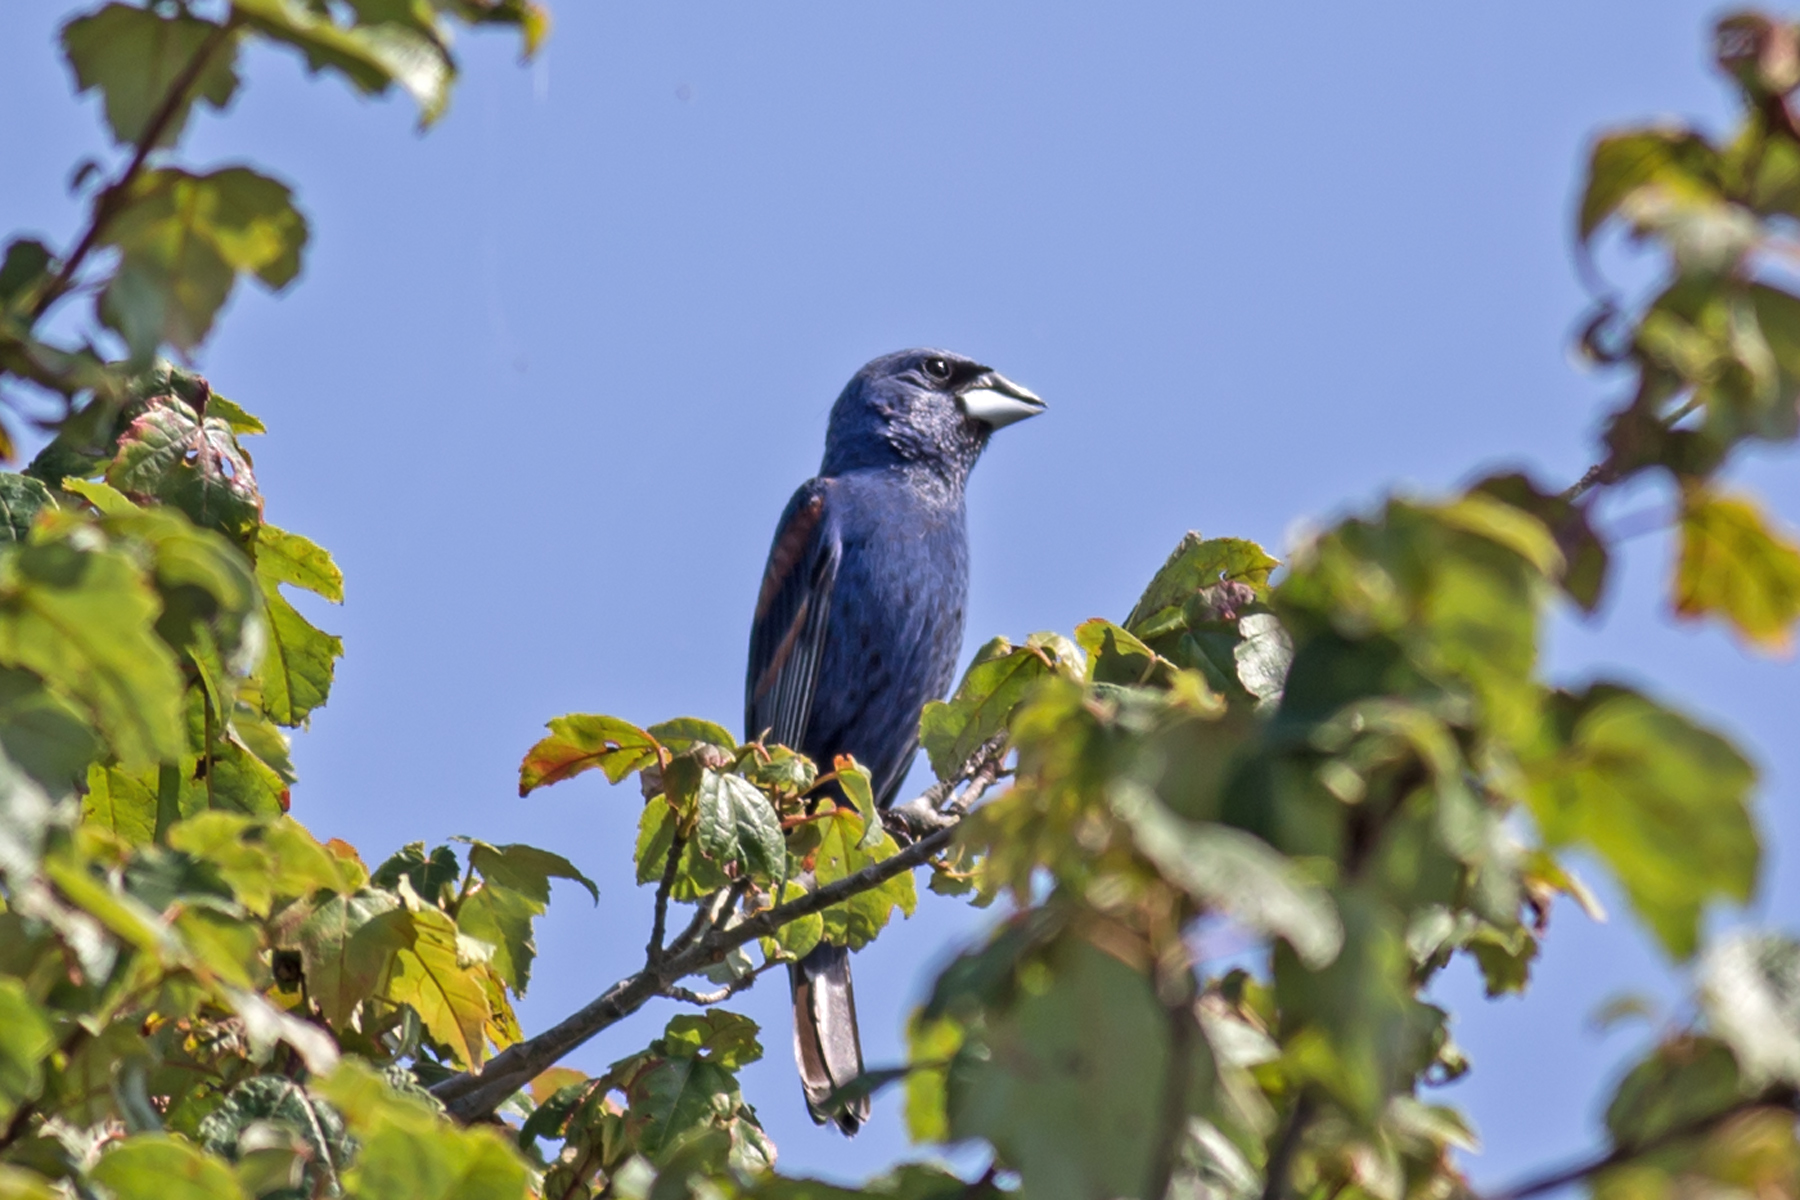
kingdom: Animalia
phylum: Chordata
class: Aves
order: Passeriformes
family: Cardinalidae
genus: Passerina
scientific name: Passerina caerulea
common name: Blue grosbeak
